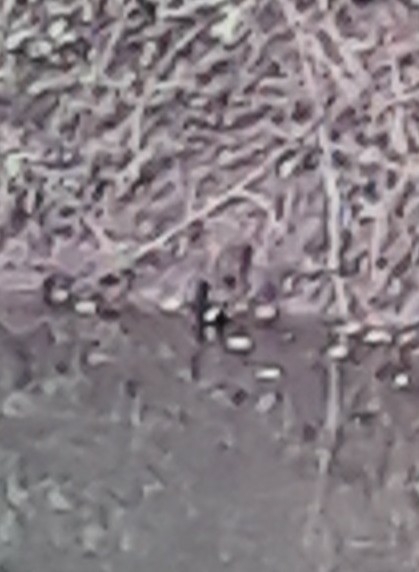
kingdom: Animalia
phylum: Chordata
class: Aves
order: Gruiformes
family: Rallidae
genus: Gallinula
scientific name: Gallinula chloropus
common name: Common moorhen
